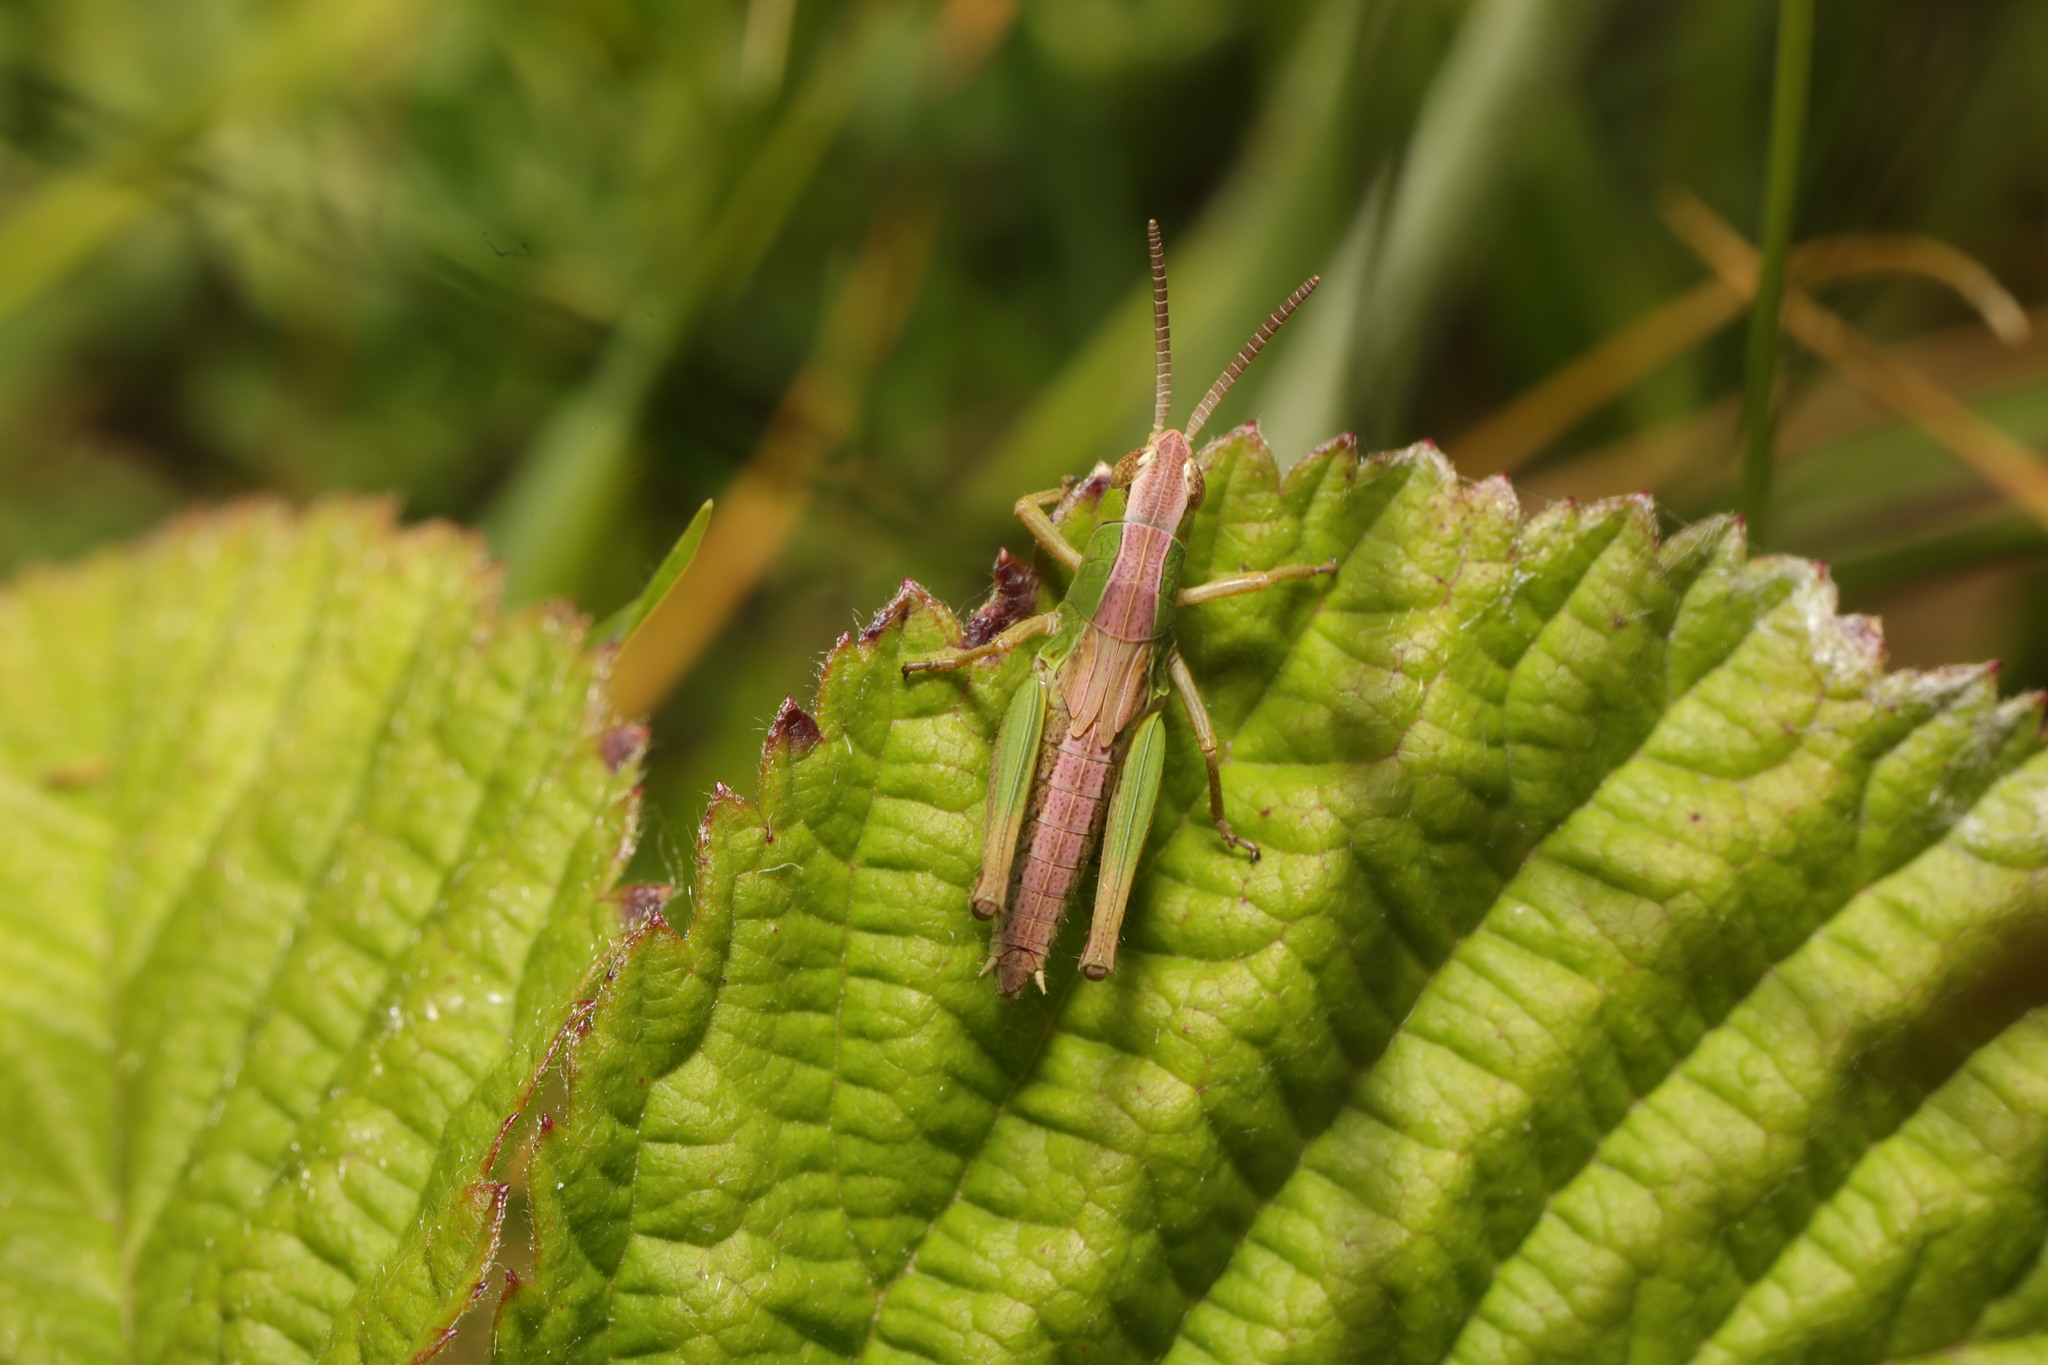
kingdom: Animalia
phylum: Arthropoda
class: Insecta
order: Orthoptera
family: Acrididae
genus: Pseudochorthippus
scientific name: Pseudochorthippus parallelus
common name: Meadow grasshopper
